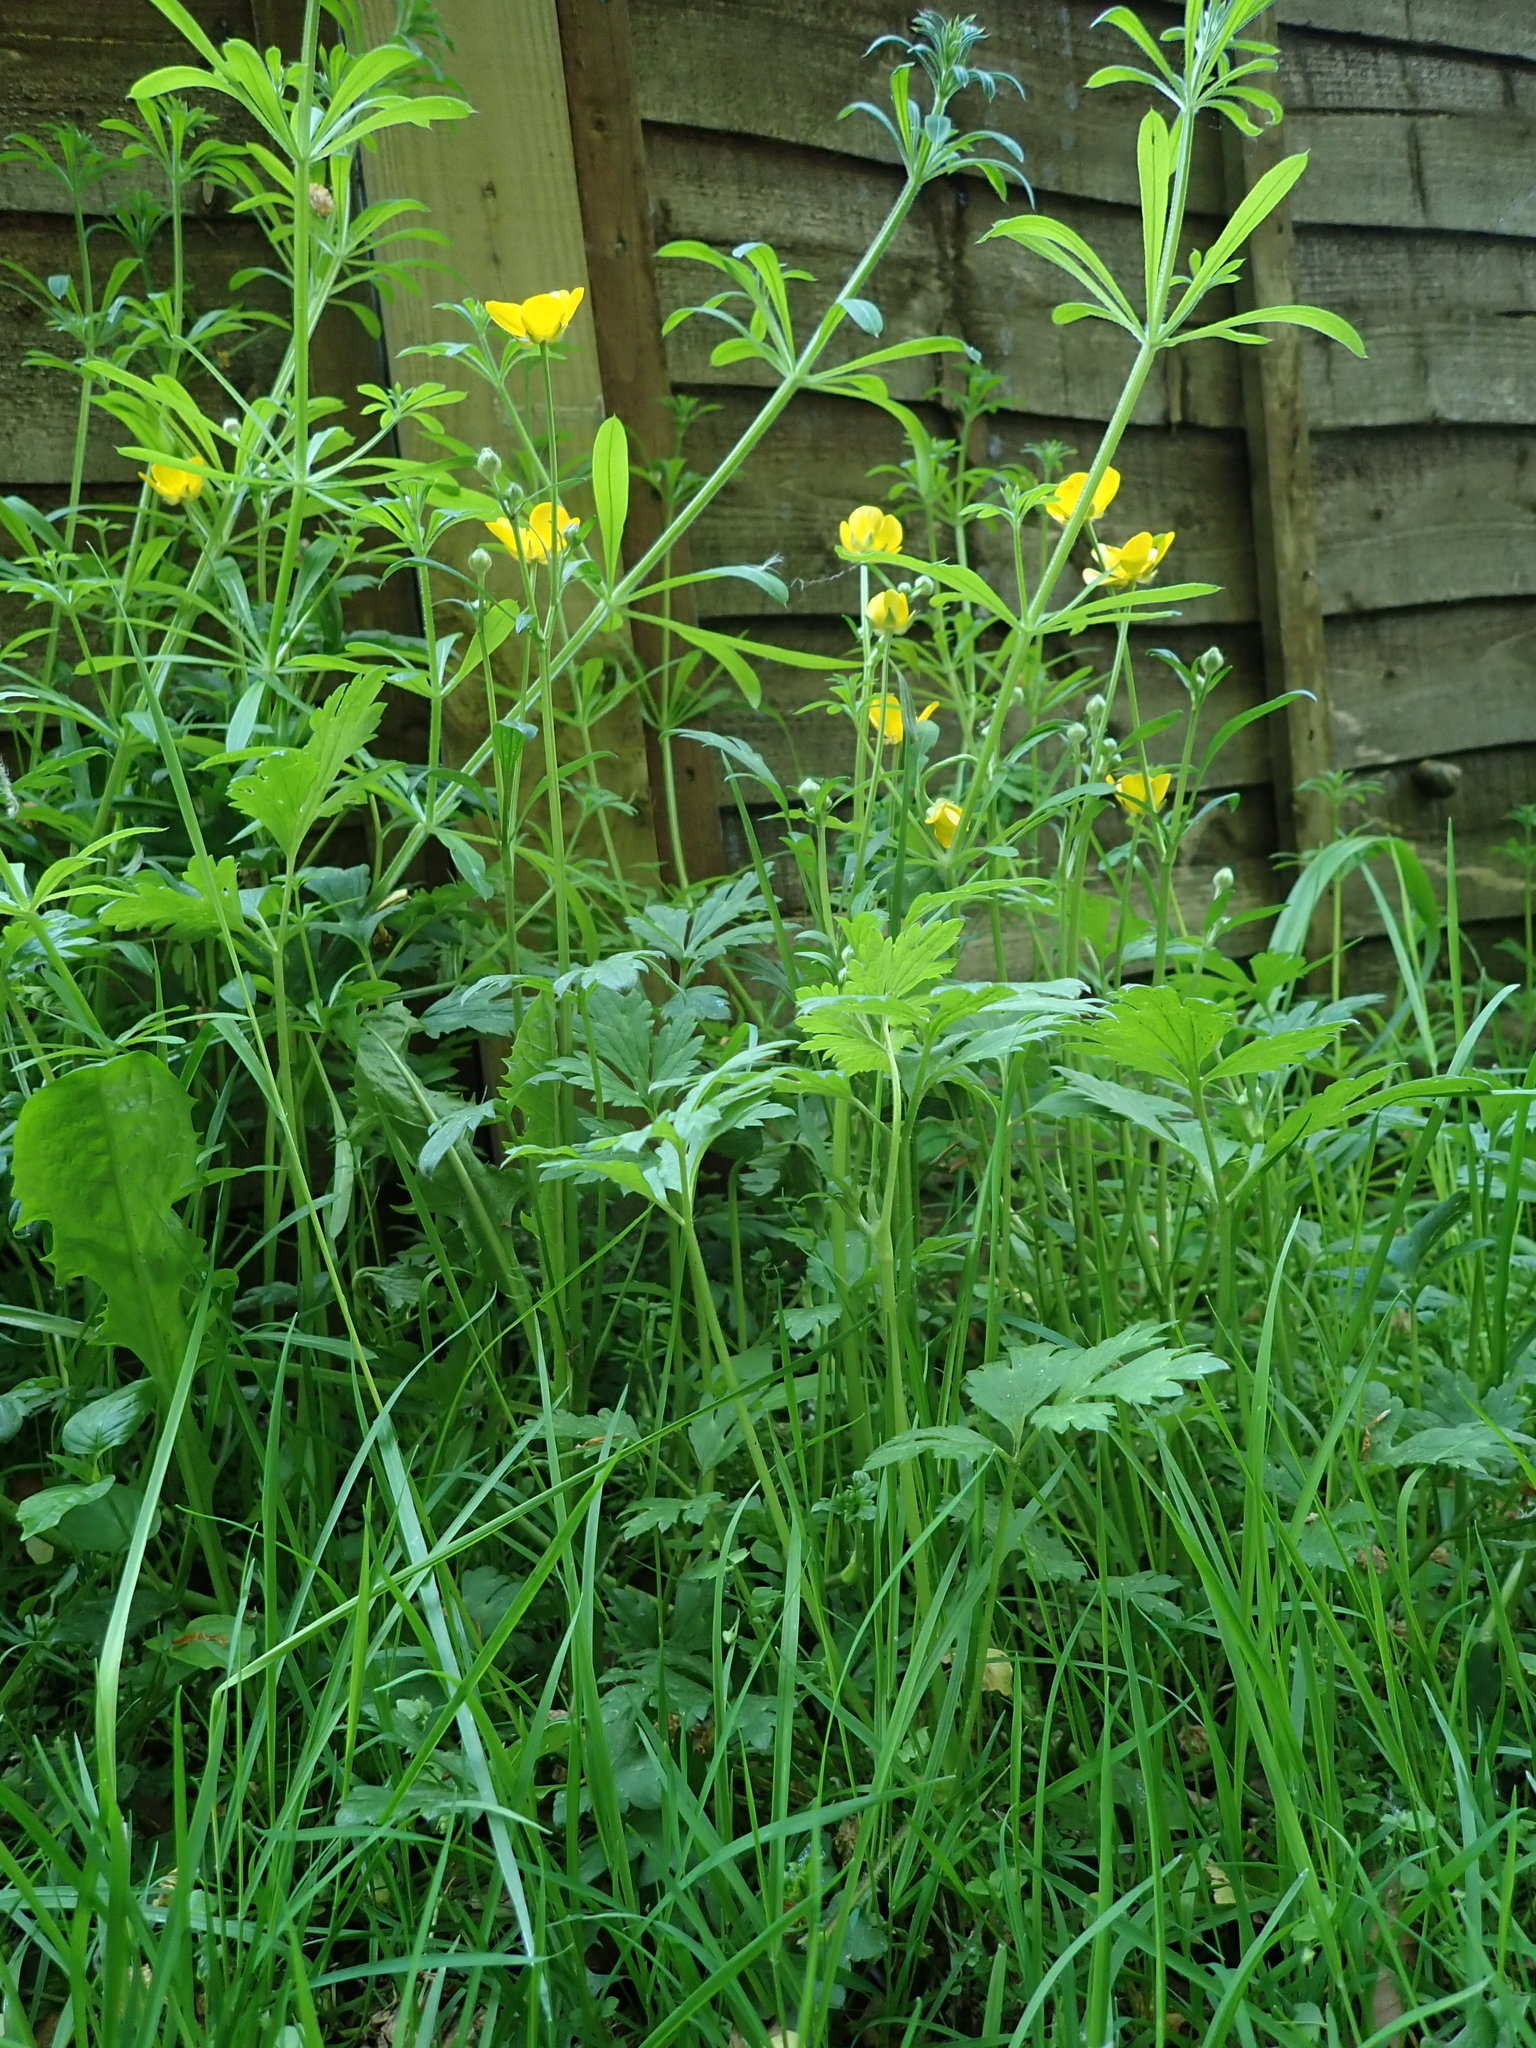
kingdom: Plantae
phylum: Tracheophyta
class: Magnoliopsida
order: Ranunculales
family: Ranunculaceae
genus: Ranunculus
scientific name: Ranunculus repens
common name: Creeping buttercup
